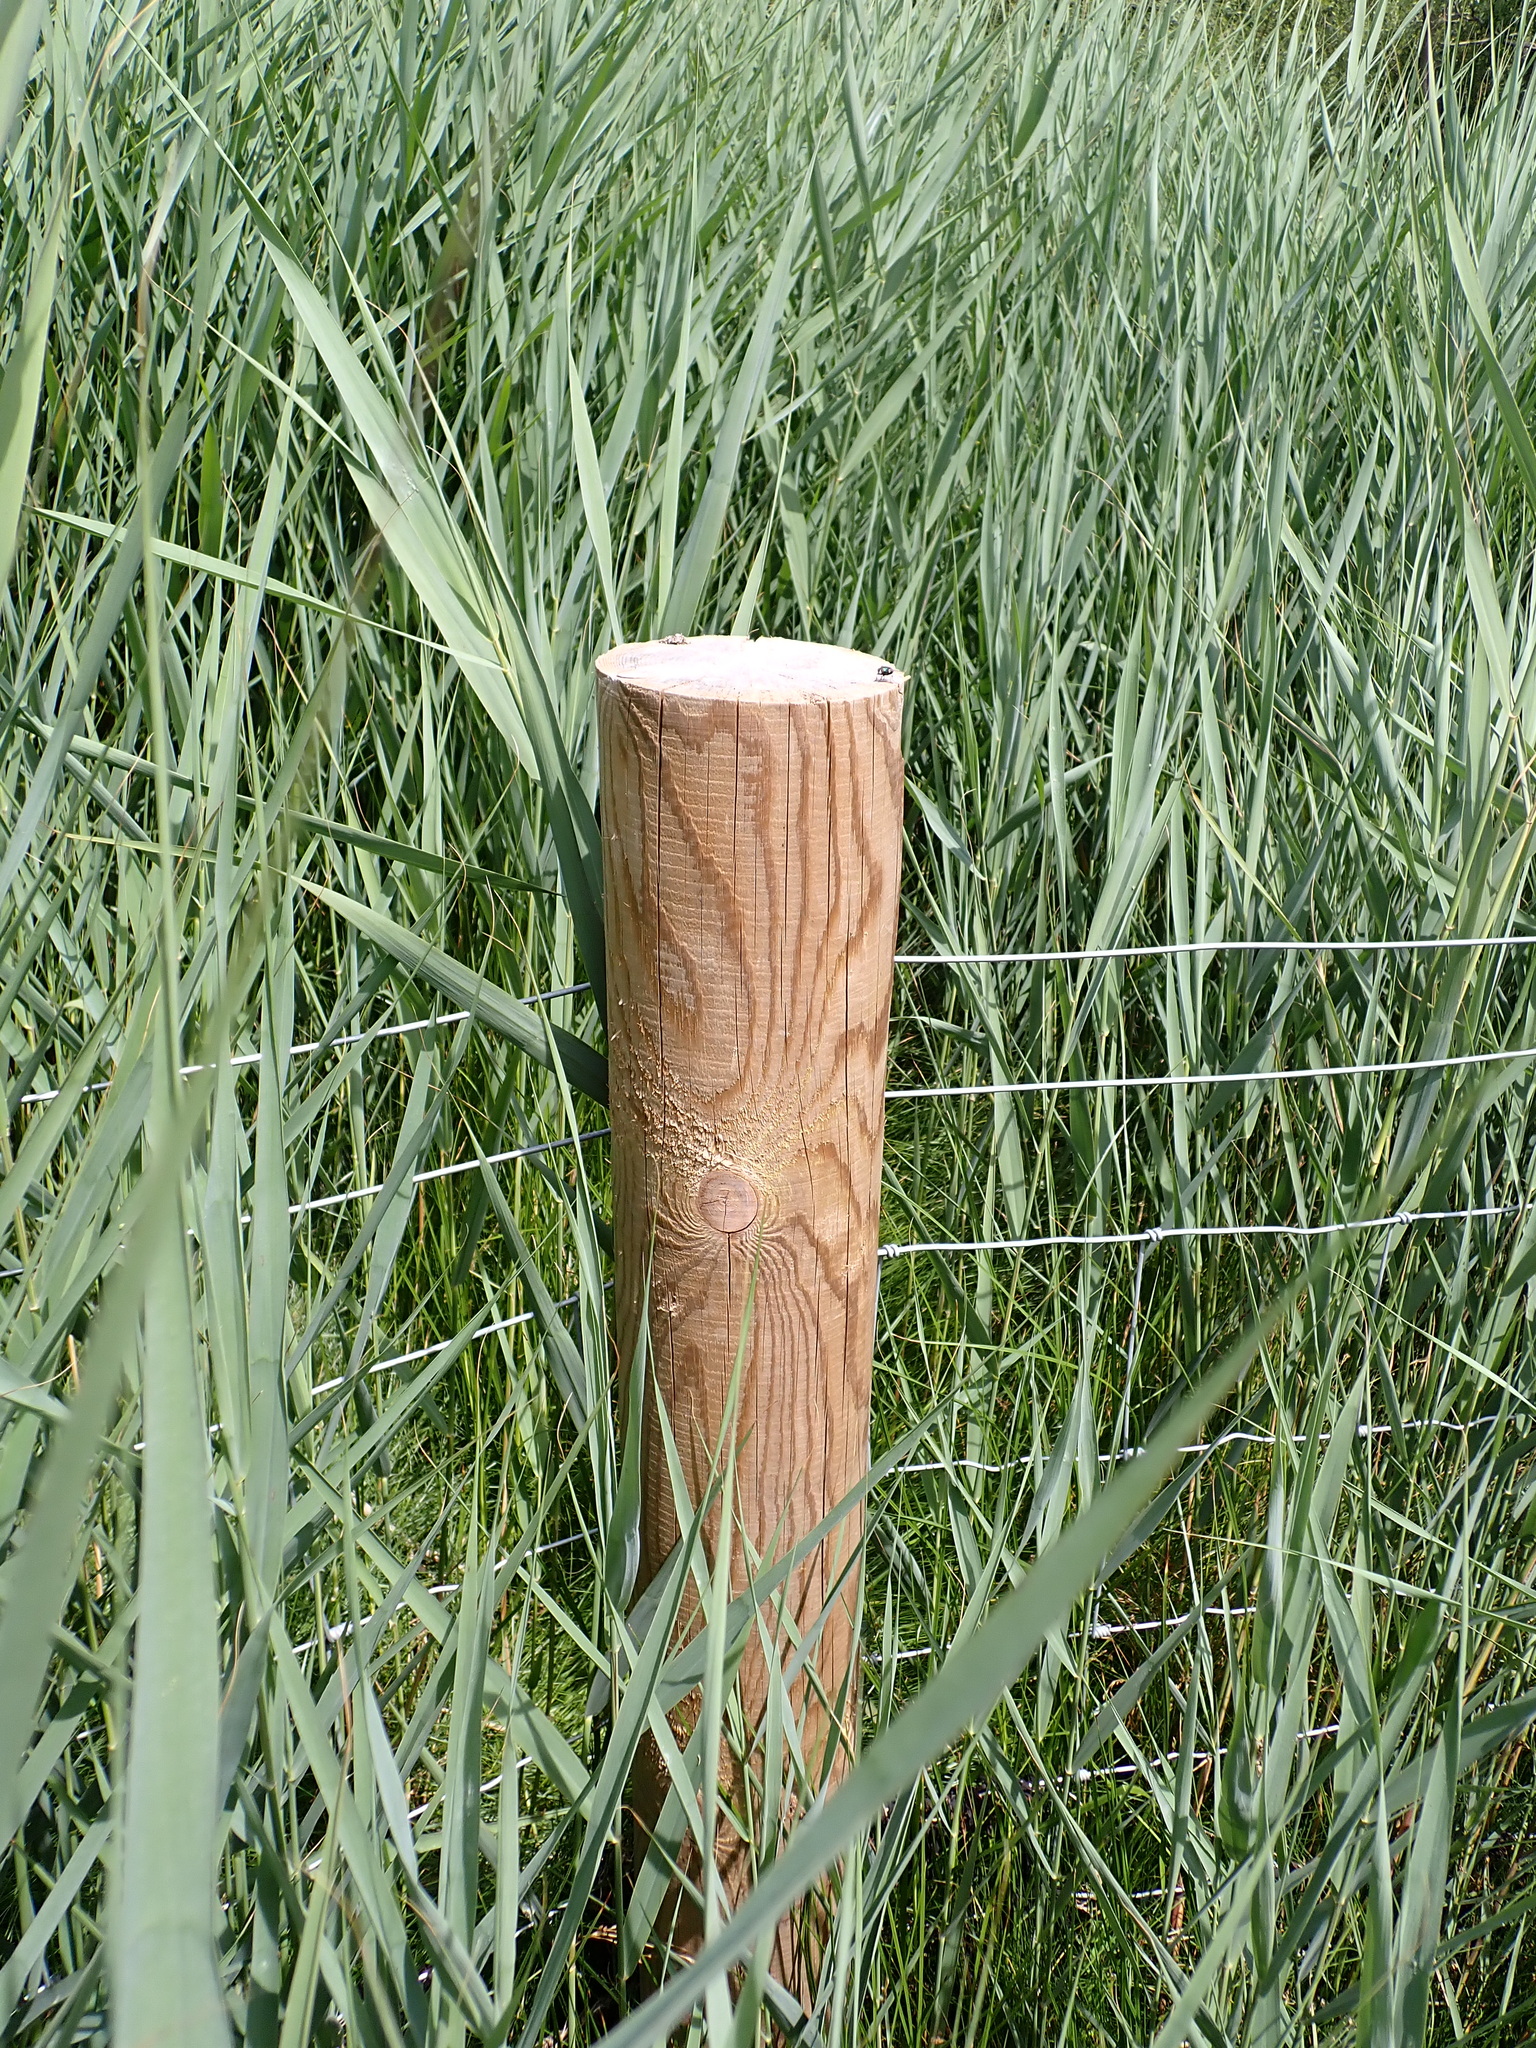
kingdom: Plantae
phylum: Tracheophyta
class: Liliopsida
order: Poales
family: Poaceae
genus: Phragmites
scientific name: Phragmites australis
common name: Common reed
